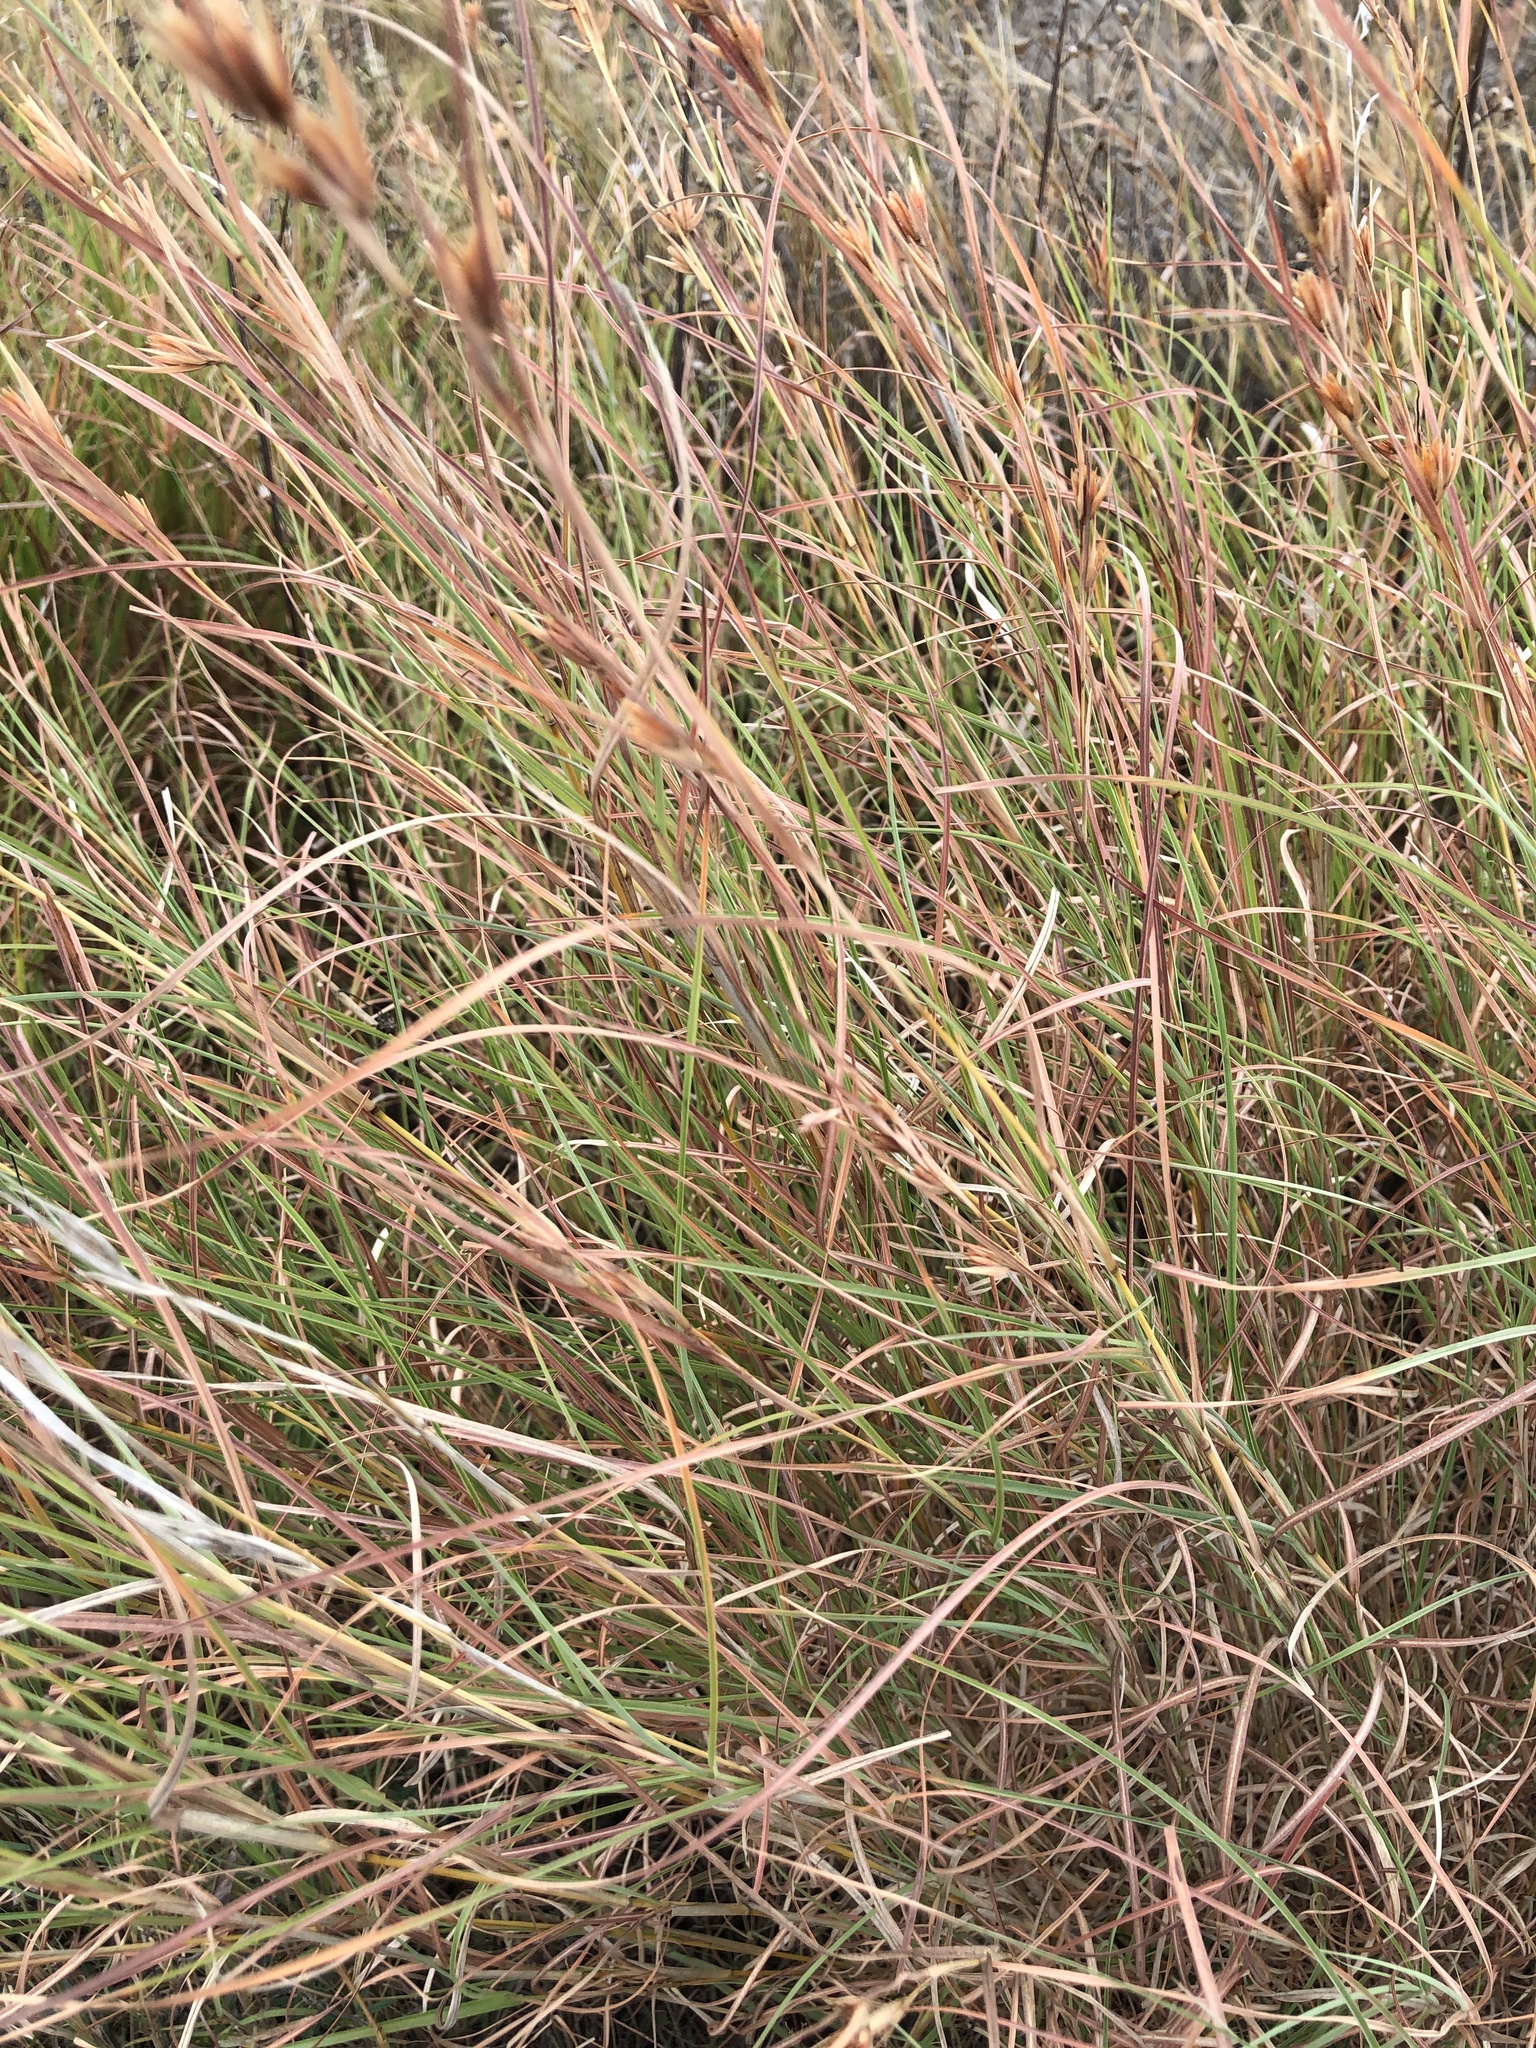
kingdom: Plantae
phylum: Tracheophyta
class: Liliopsida
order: Poales
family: Poaceae
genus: Themeda
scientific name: Themeda triandra
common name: Kangaroo grass
